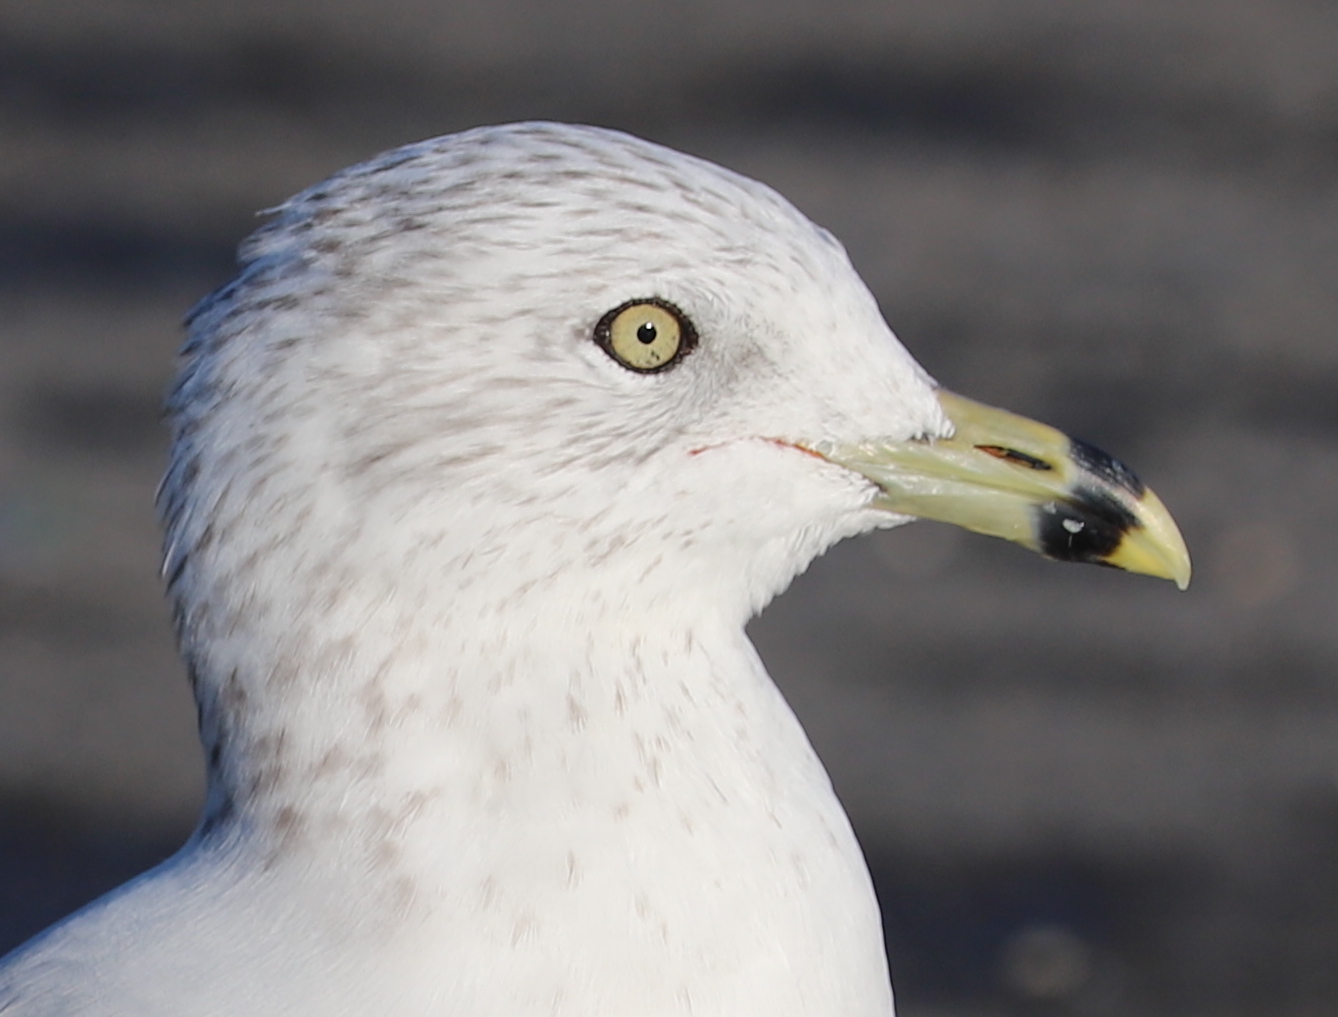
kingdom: Animalia
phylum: Chordata
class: Aves
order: Charadriiformes
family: Laridae
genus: Larus
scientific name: Larus delawarensis
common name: Ring-billed gull
